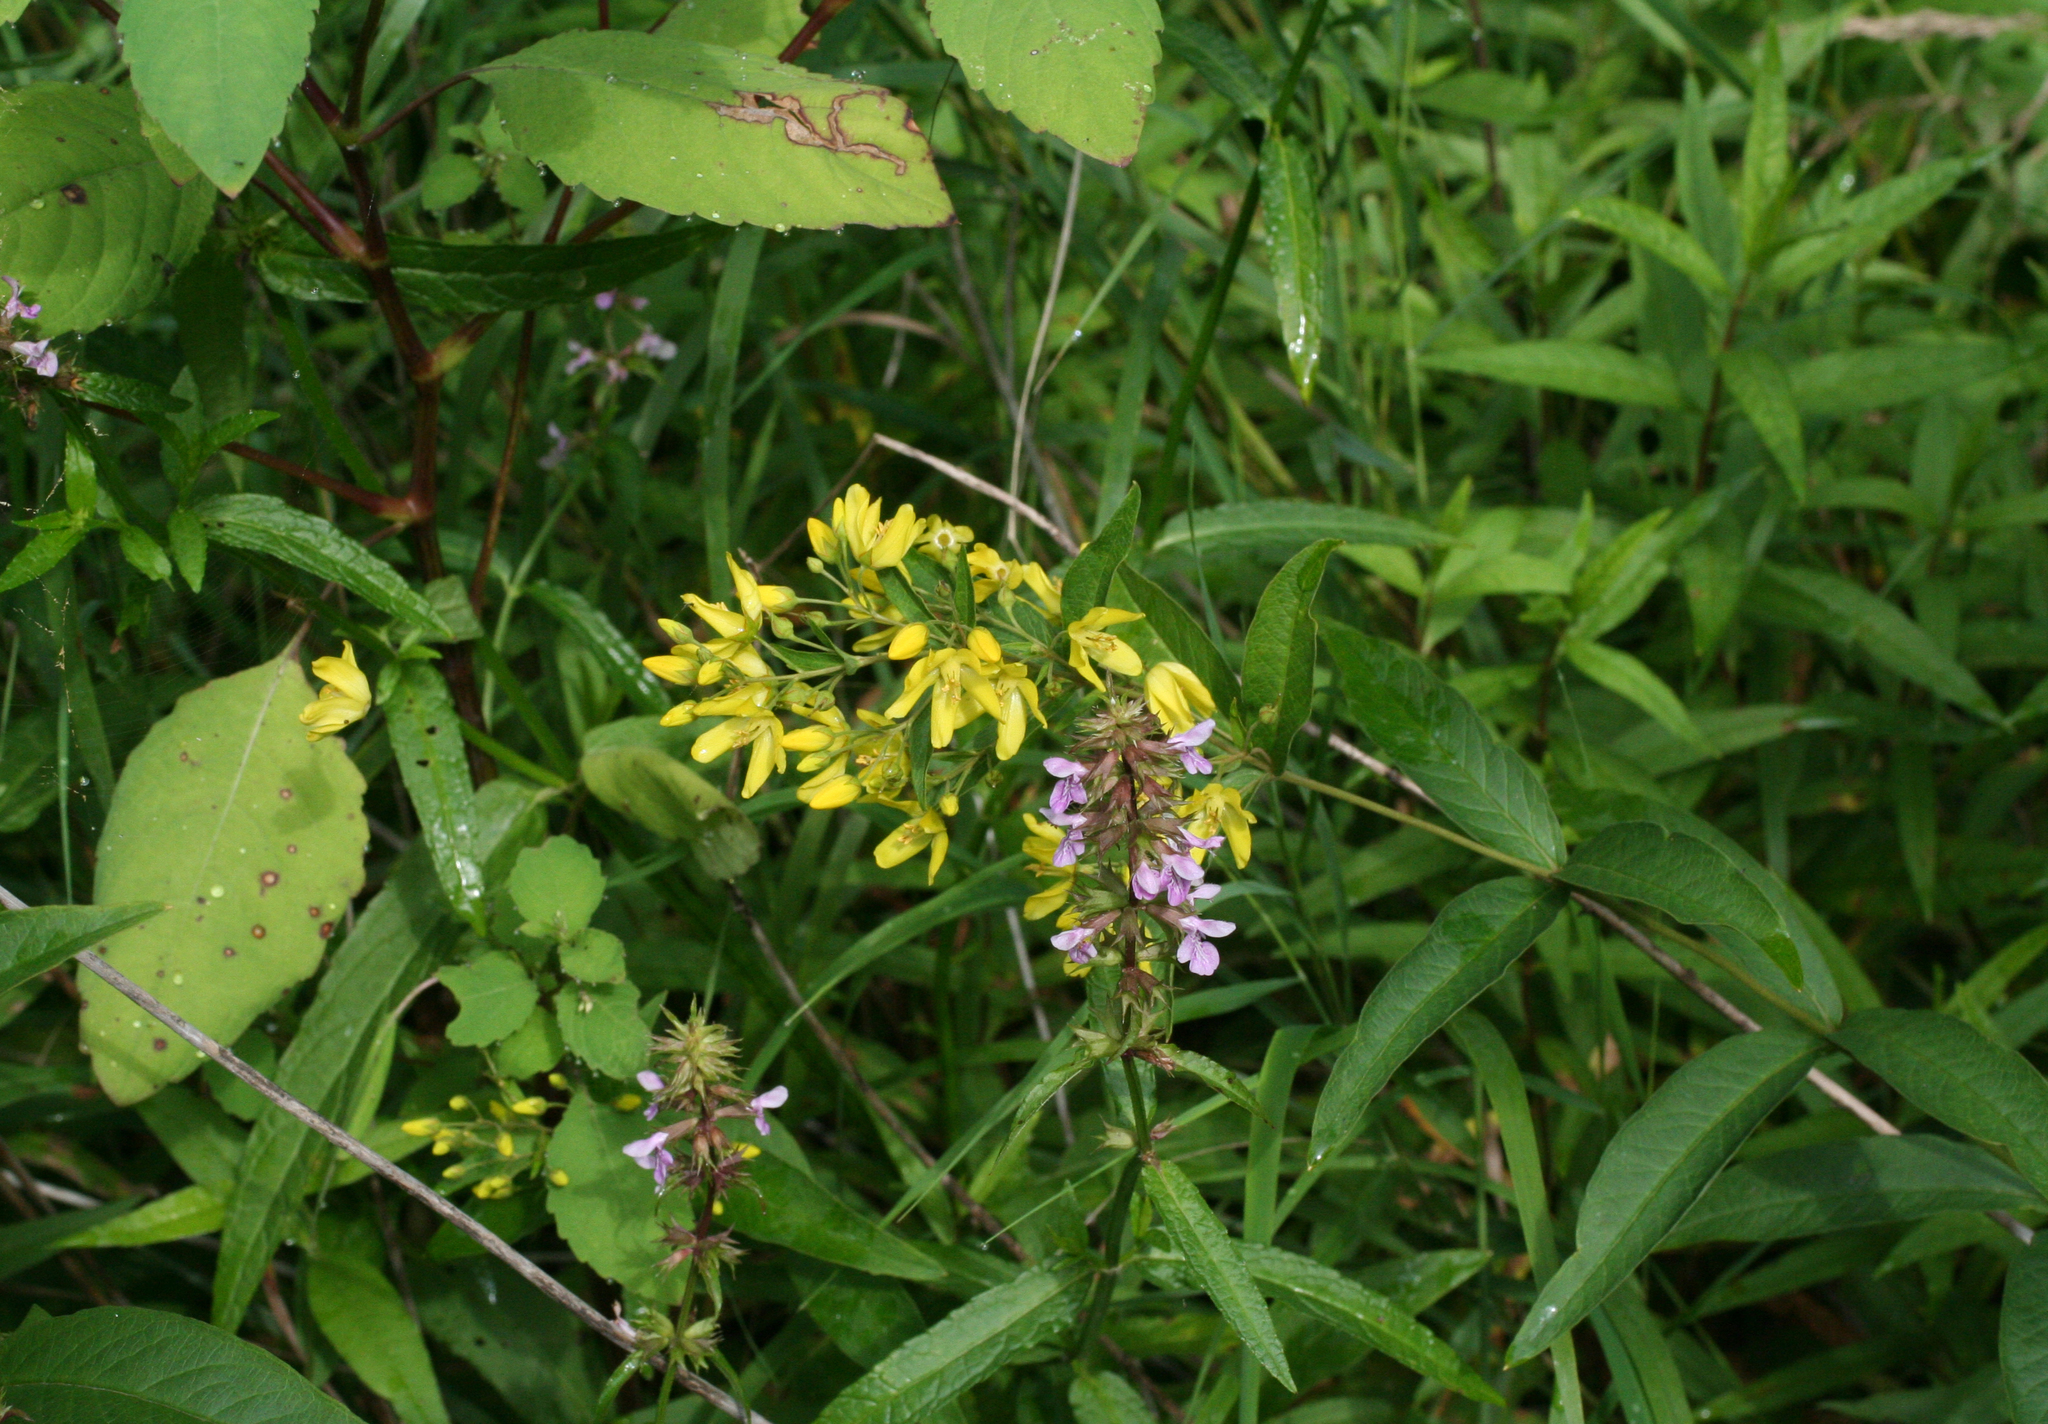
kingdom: Plantae
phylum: Tracheophyta
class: Magnoliopsida
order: Ericales
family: Primulaceae
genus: Lysimachia
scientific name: Lysimachia davurica
